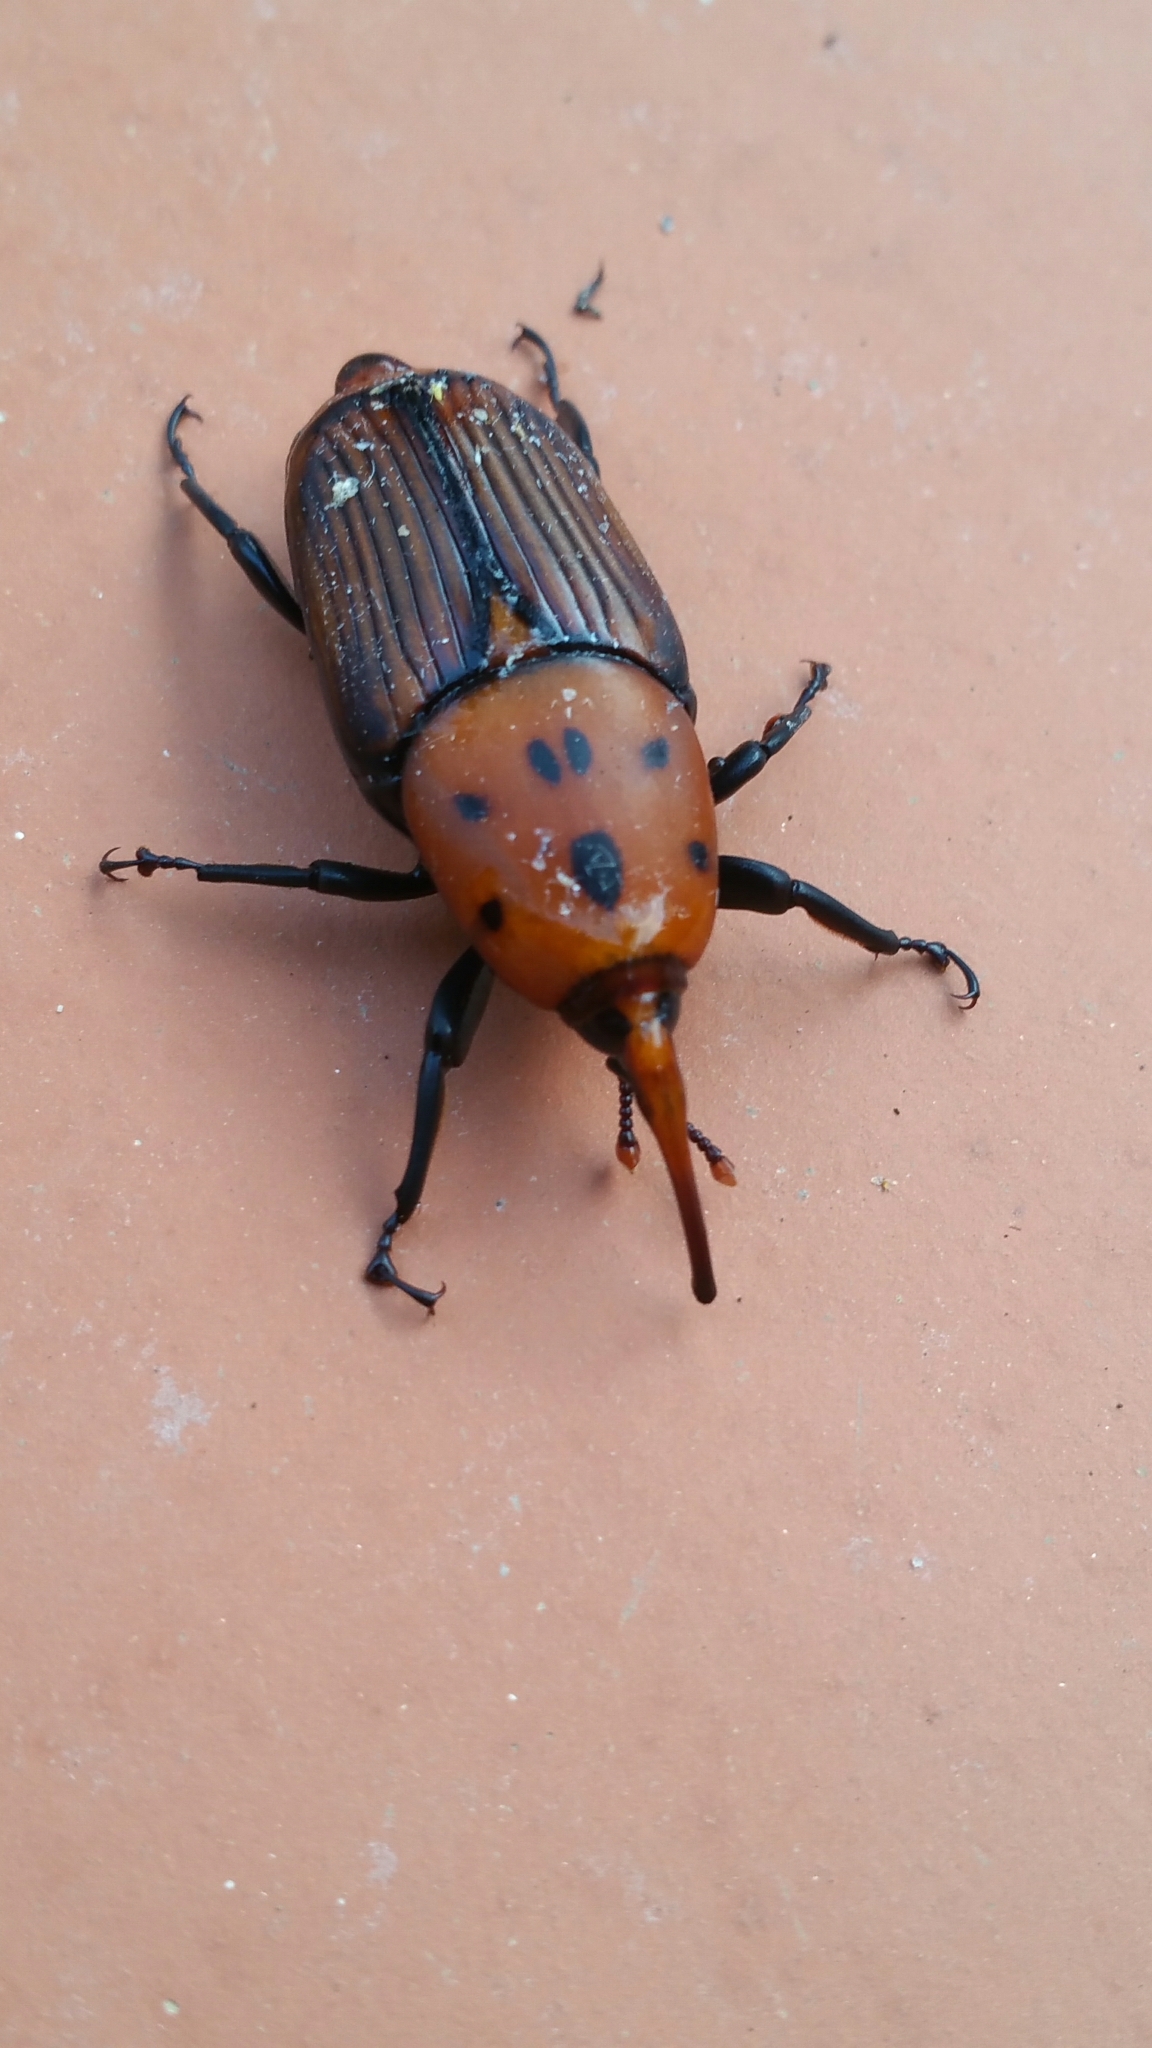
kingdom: Animalia
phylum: Arthropoda
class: Insecta
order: Coleoptera
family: Dryophthoridae
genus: Rhynchophorus
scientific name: Rhynchophorus ferrugineus
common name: Red palm weevil
